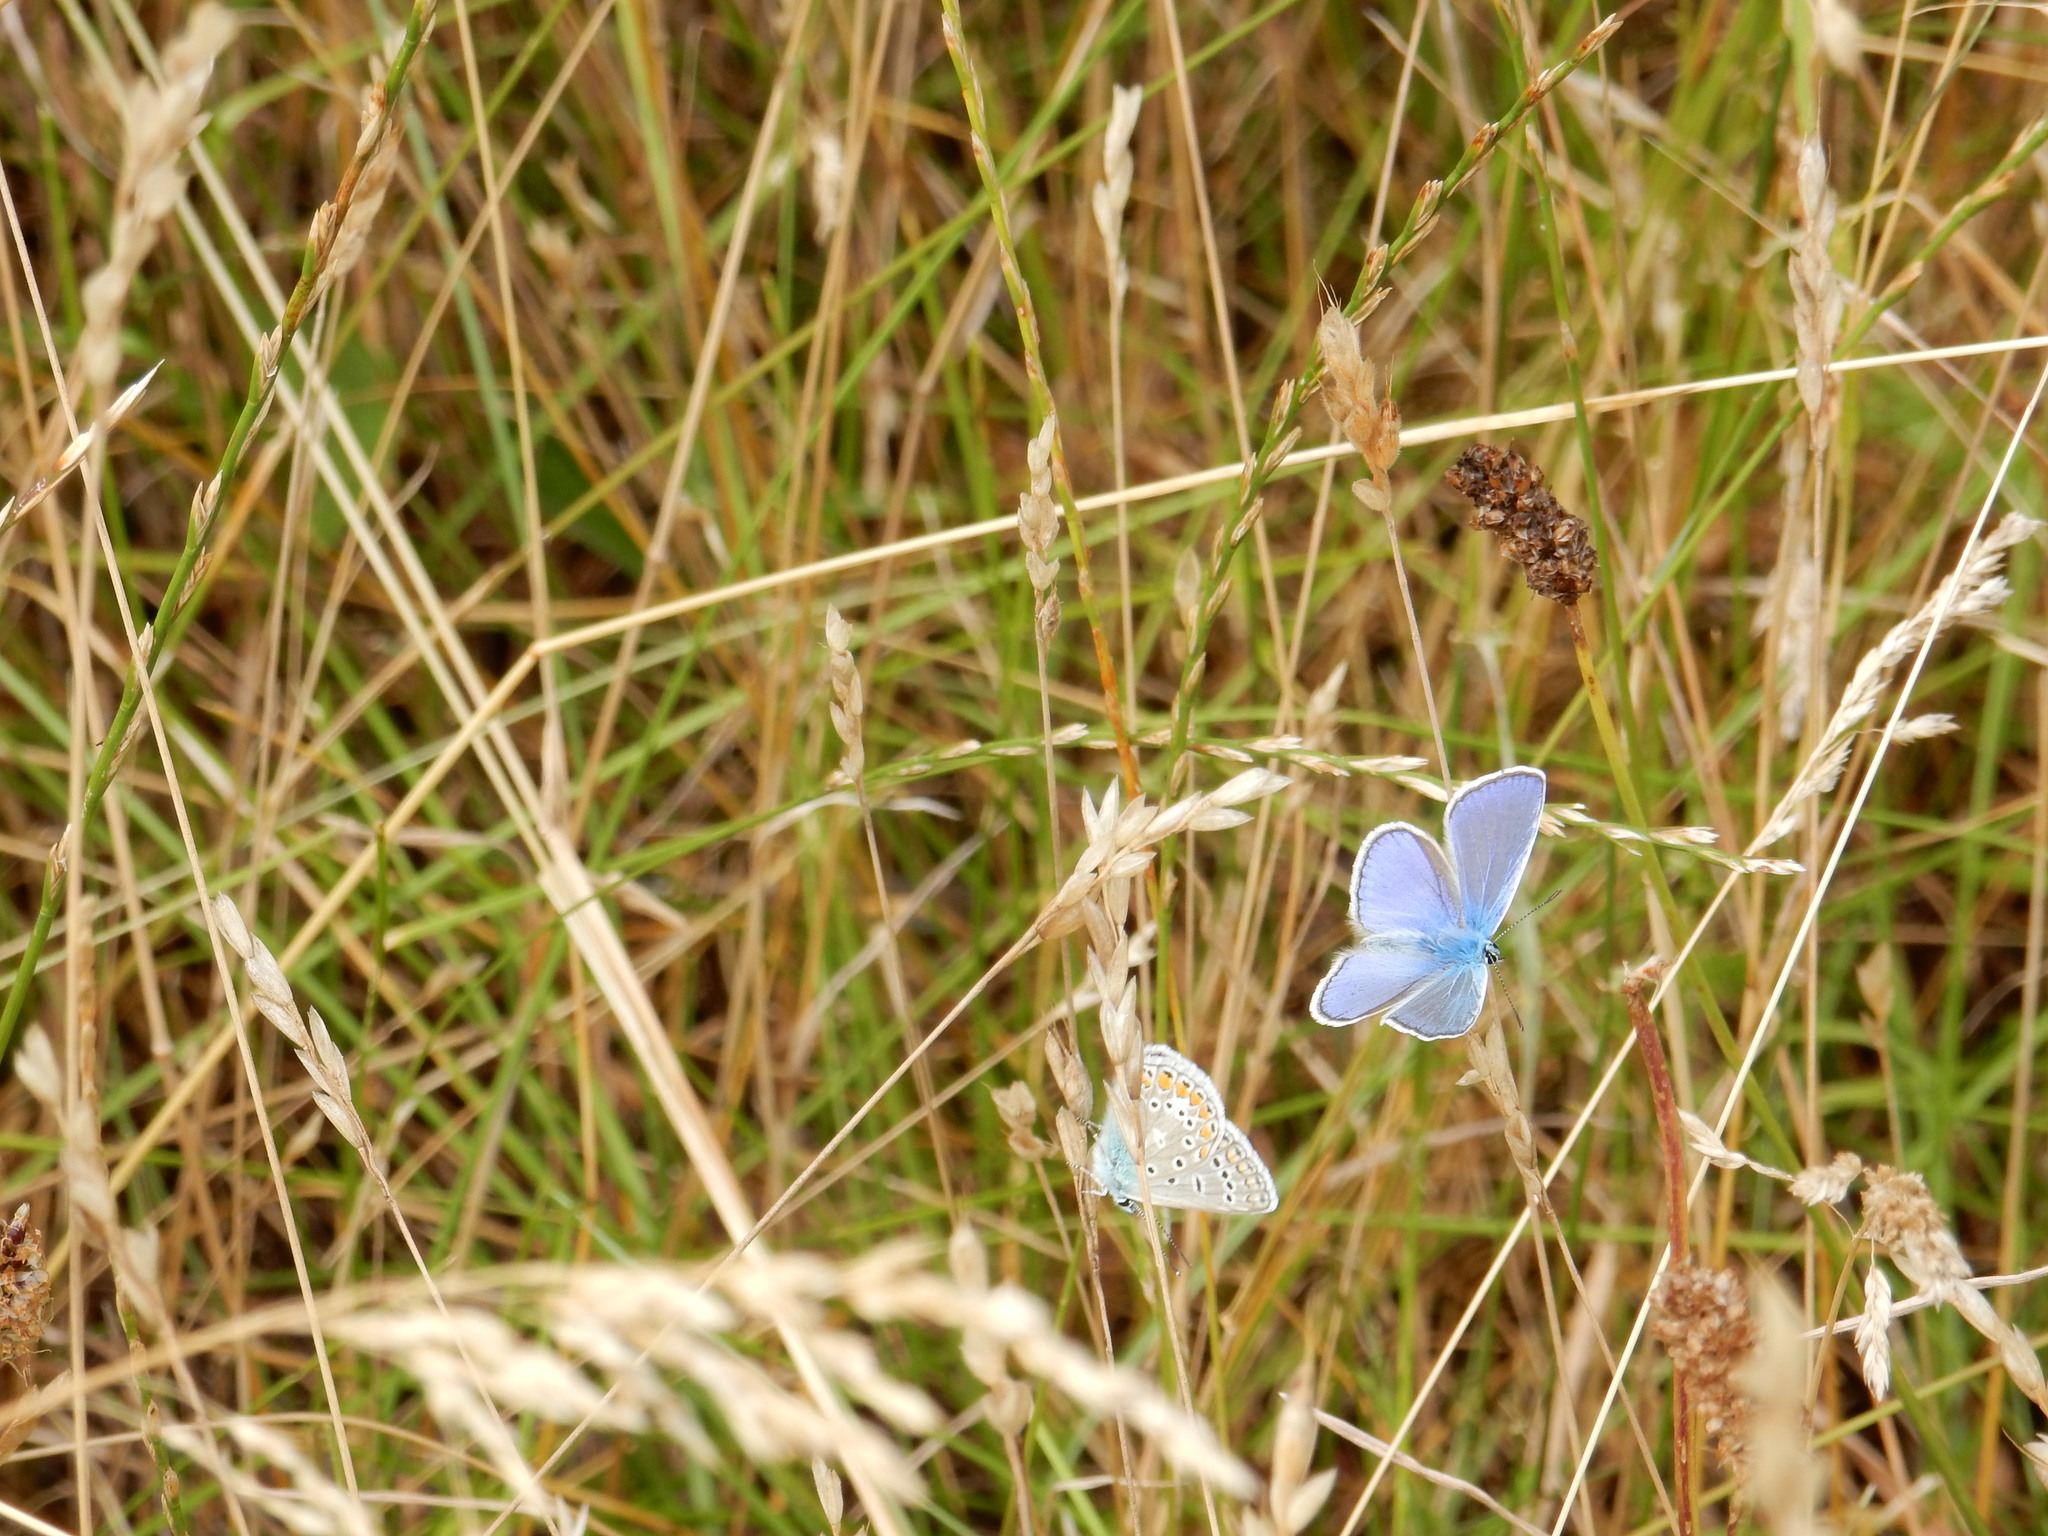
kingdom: Animalia
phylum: Arthropoda
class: Insecta
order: Lepidoptera
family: Lycaenidae
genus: Polyommatus
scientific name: Polyommatus icarus
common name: Common blue
